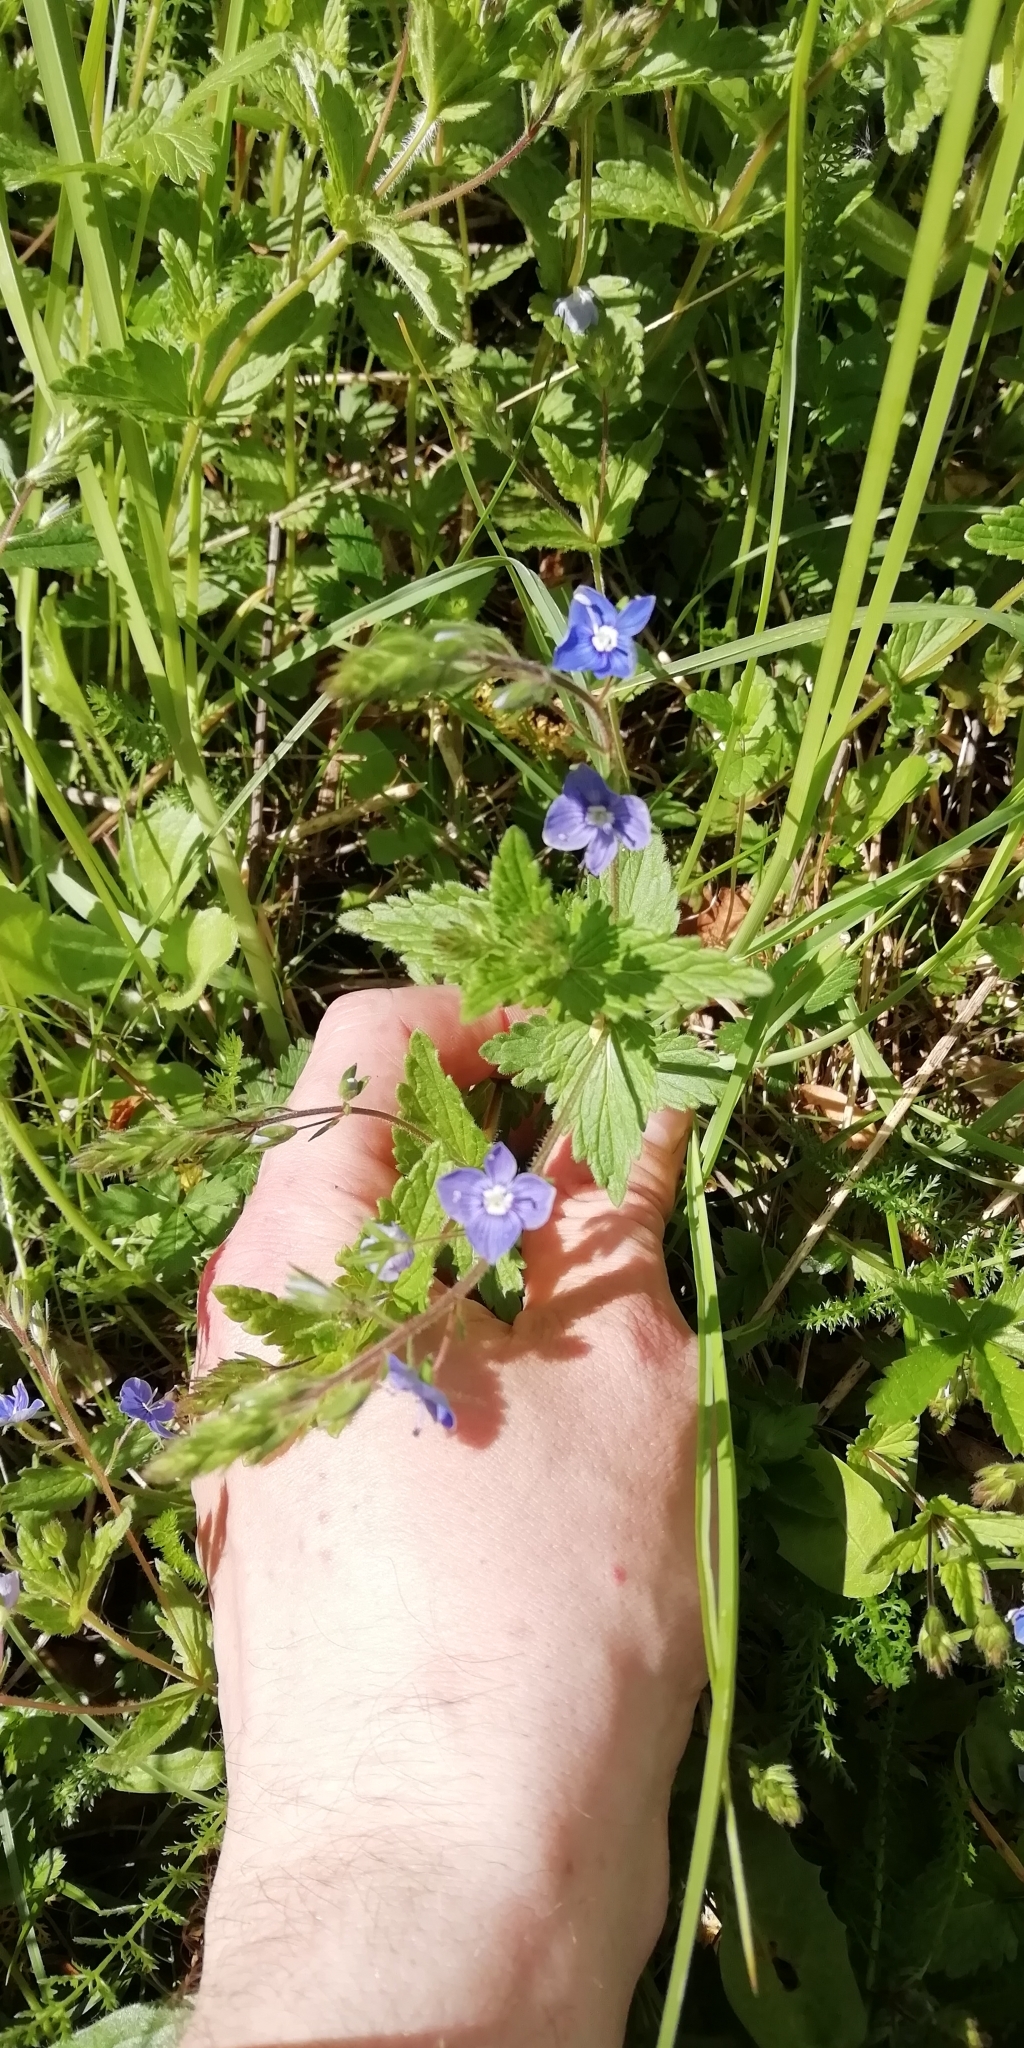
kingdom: Plantae
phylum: Tracheophyta
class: Magnoliopsida
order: Lamiales
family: Plantaginaceae
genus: Veronica
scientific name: Veronica chamaedrys
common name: Germander speedwell
